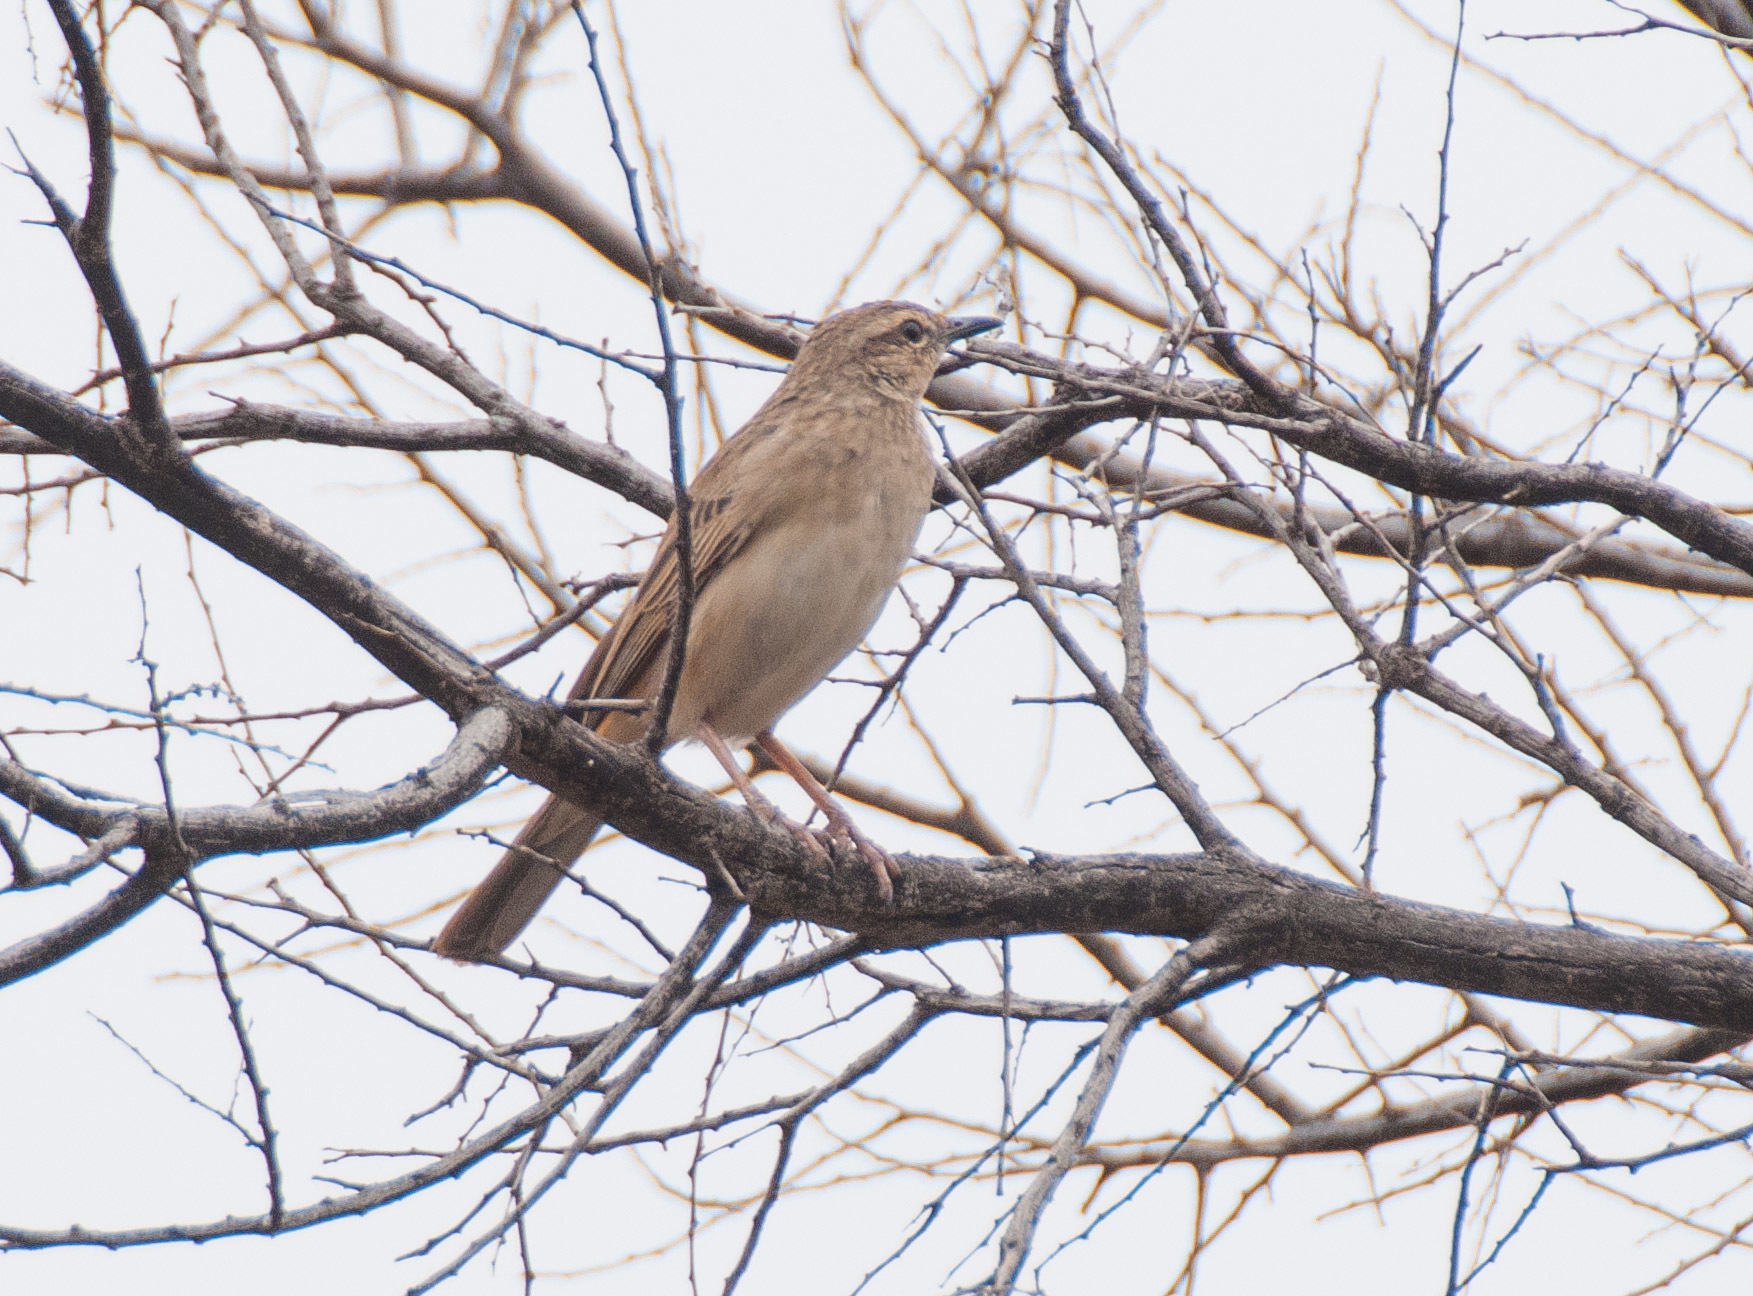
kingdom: Animalia
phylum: Chordata
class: Aves
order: Passeriformes
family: Locustellidae
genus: Megalurus
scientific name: Megalurus mathewsi
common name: Rufous songlark
